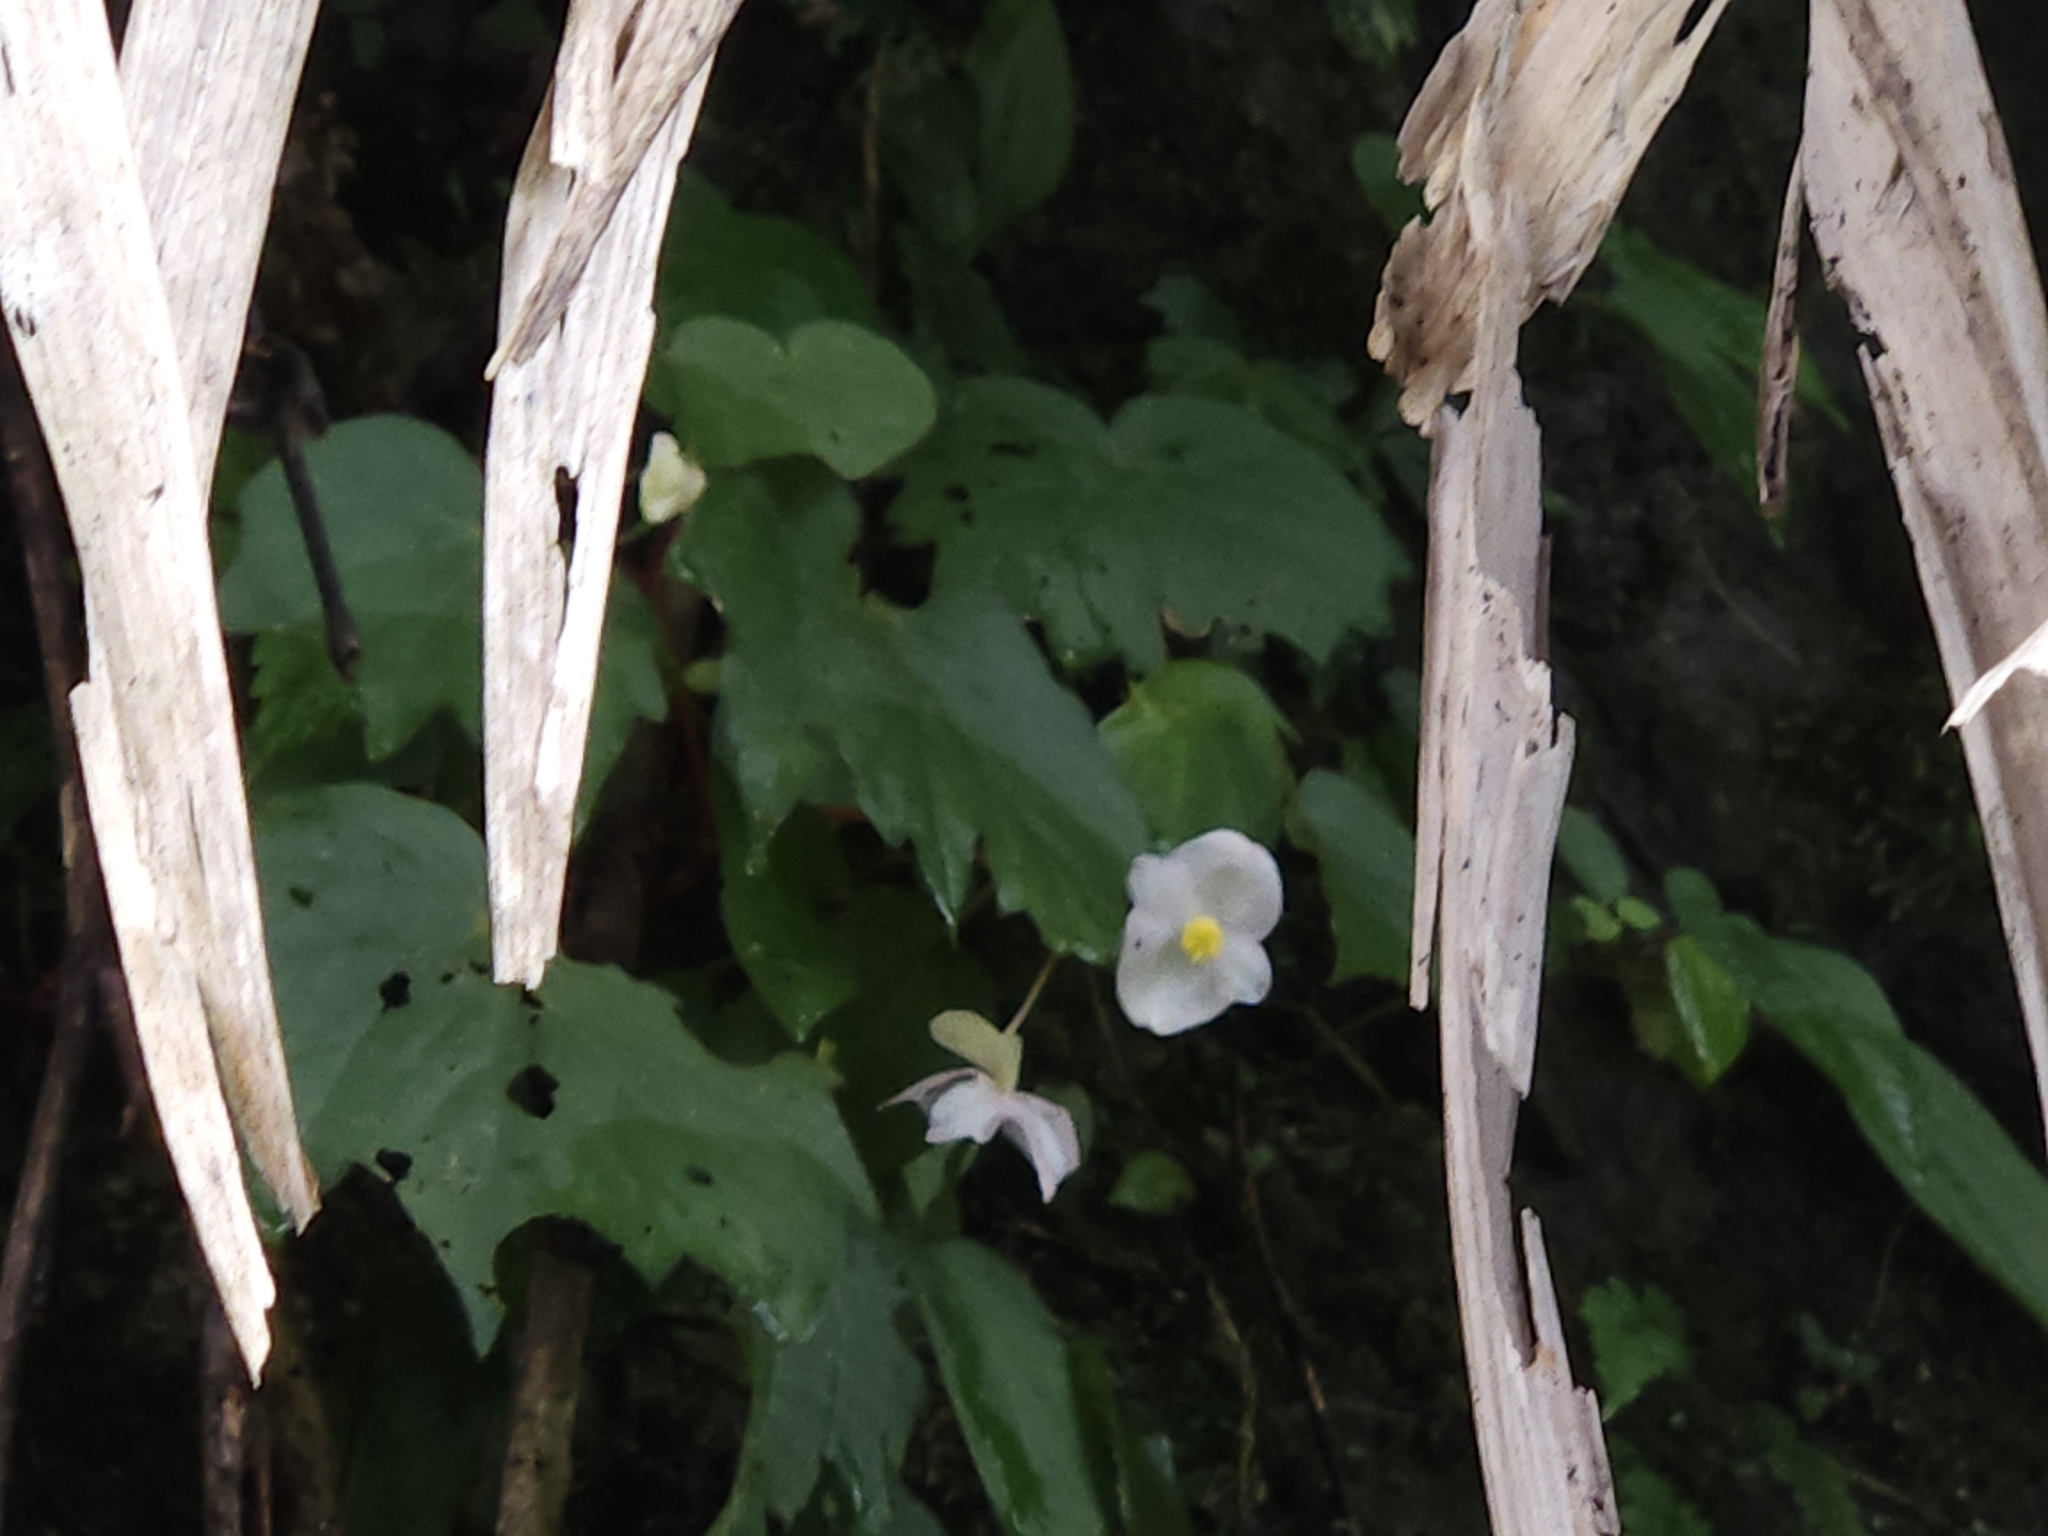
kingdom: Plantae
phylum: Tracheophyta
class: Magnoliopsida
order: Cucurbitales
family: Begoniaceae
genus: Begonia
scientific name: Begonia palmata
